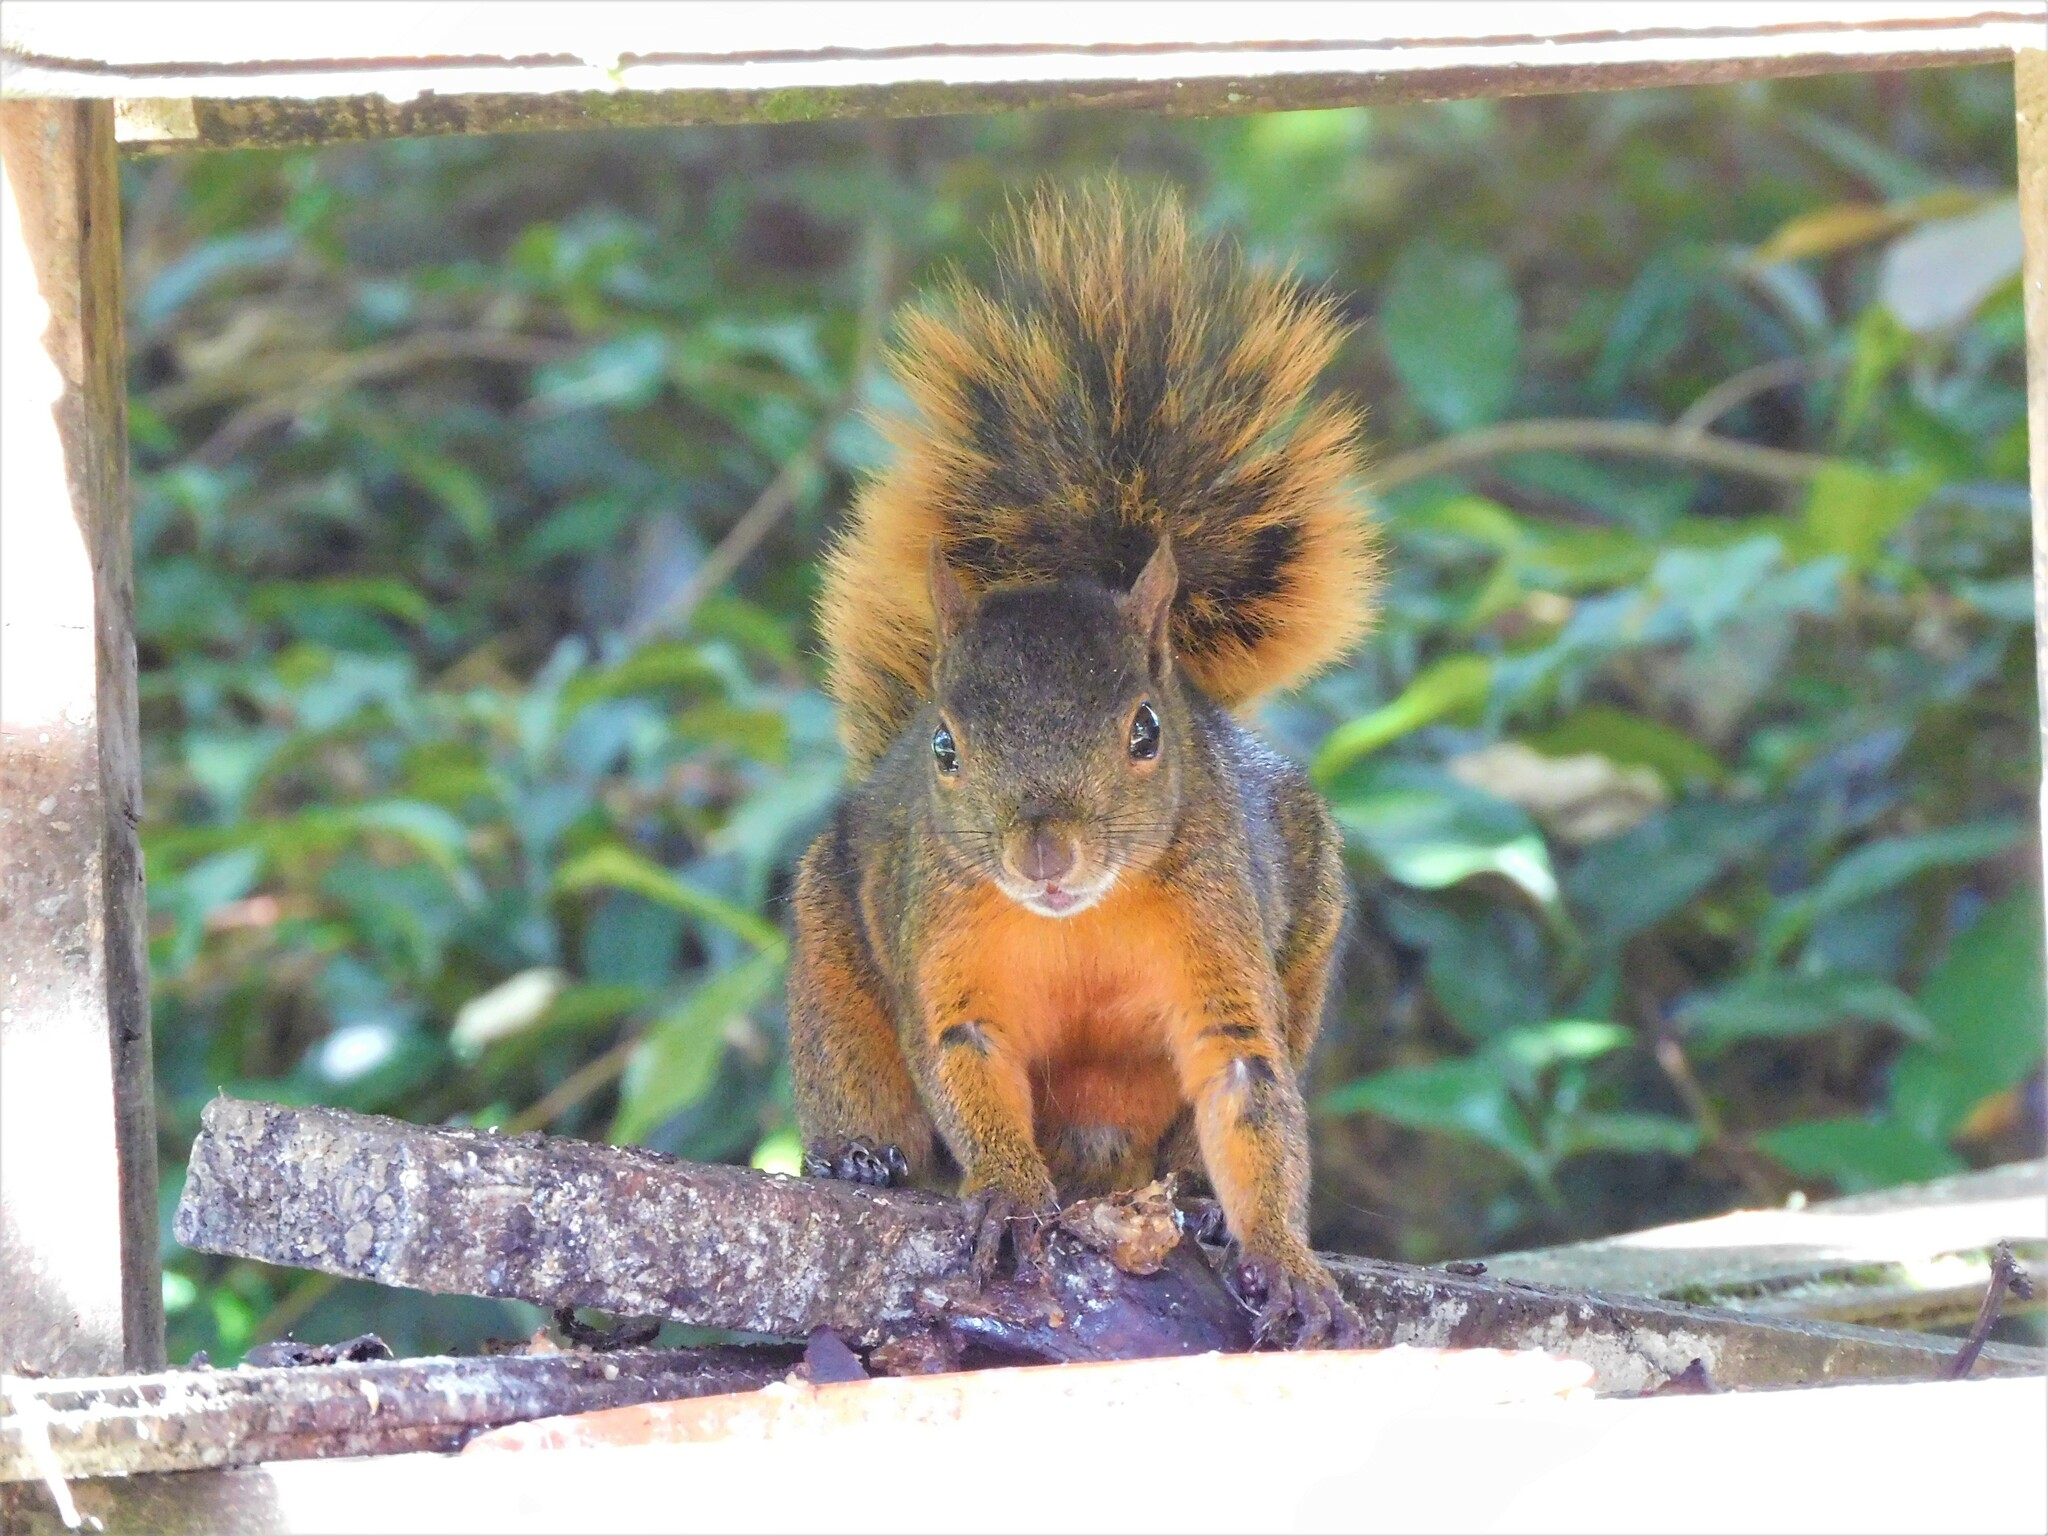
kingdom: Animalia
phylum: Chordata
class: Mammalia
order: Rodentia
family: Sciuridae
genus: Sciurus
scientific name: Sciurus granatensis
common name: Red-tailed squirrel
